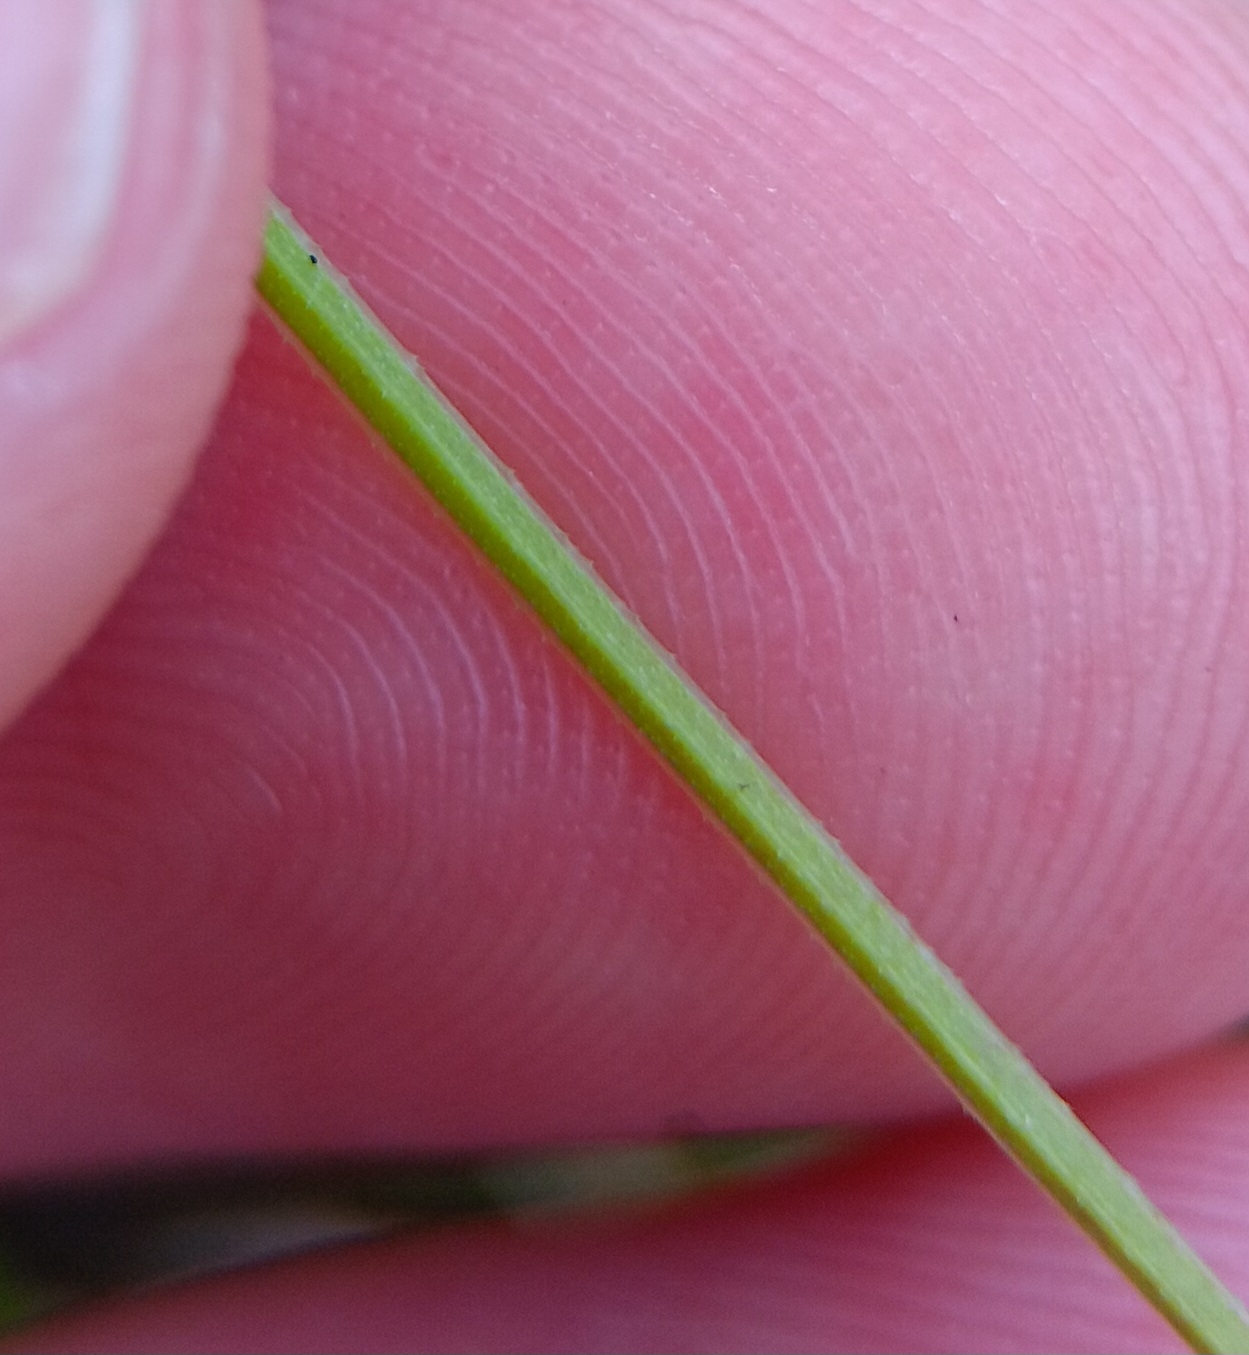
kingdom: Plantae
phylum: Tracheophyta
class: Magnoliopsida
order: Gentianales
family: Rubiaceae
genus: Galium
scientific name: Galium tinctorium
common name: Bedstraw
